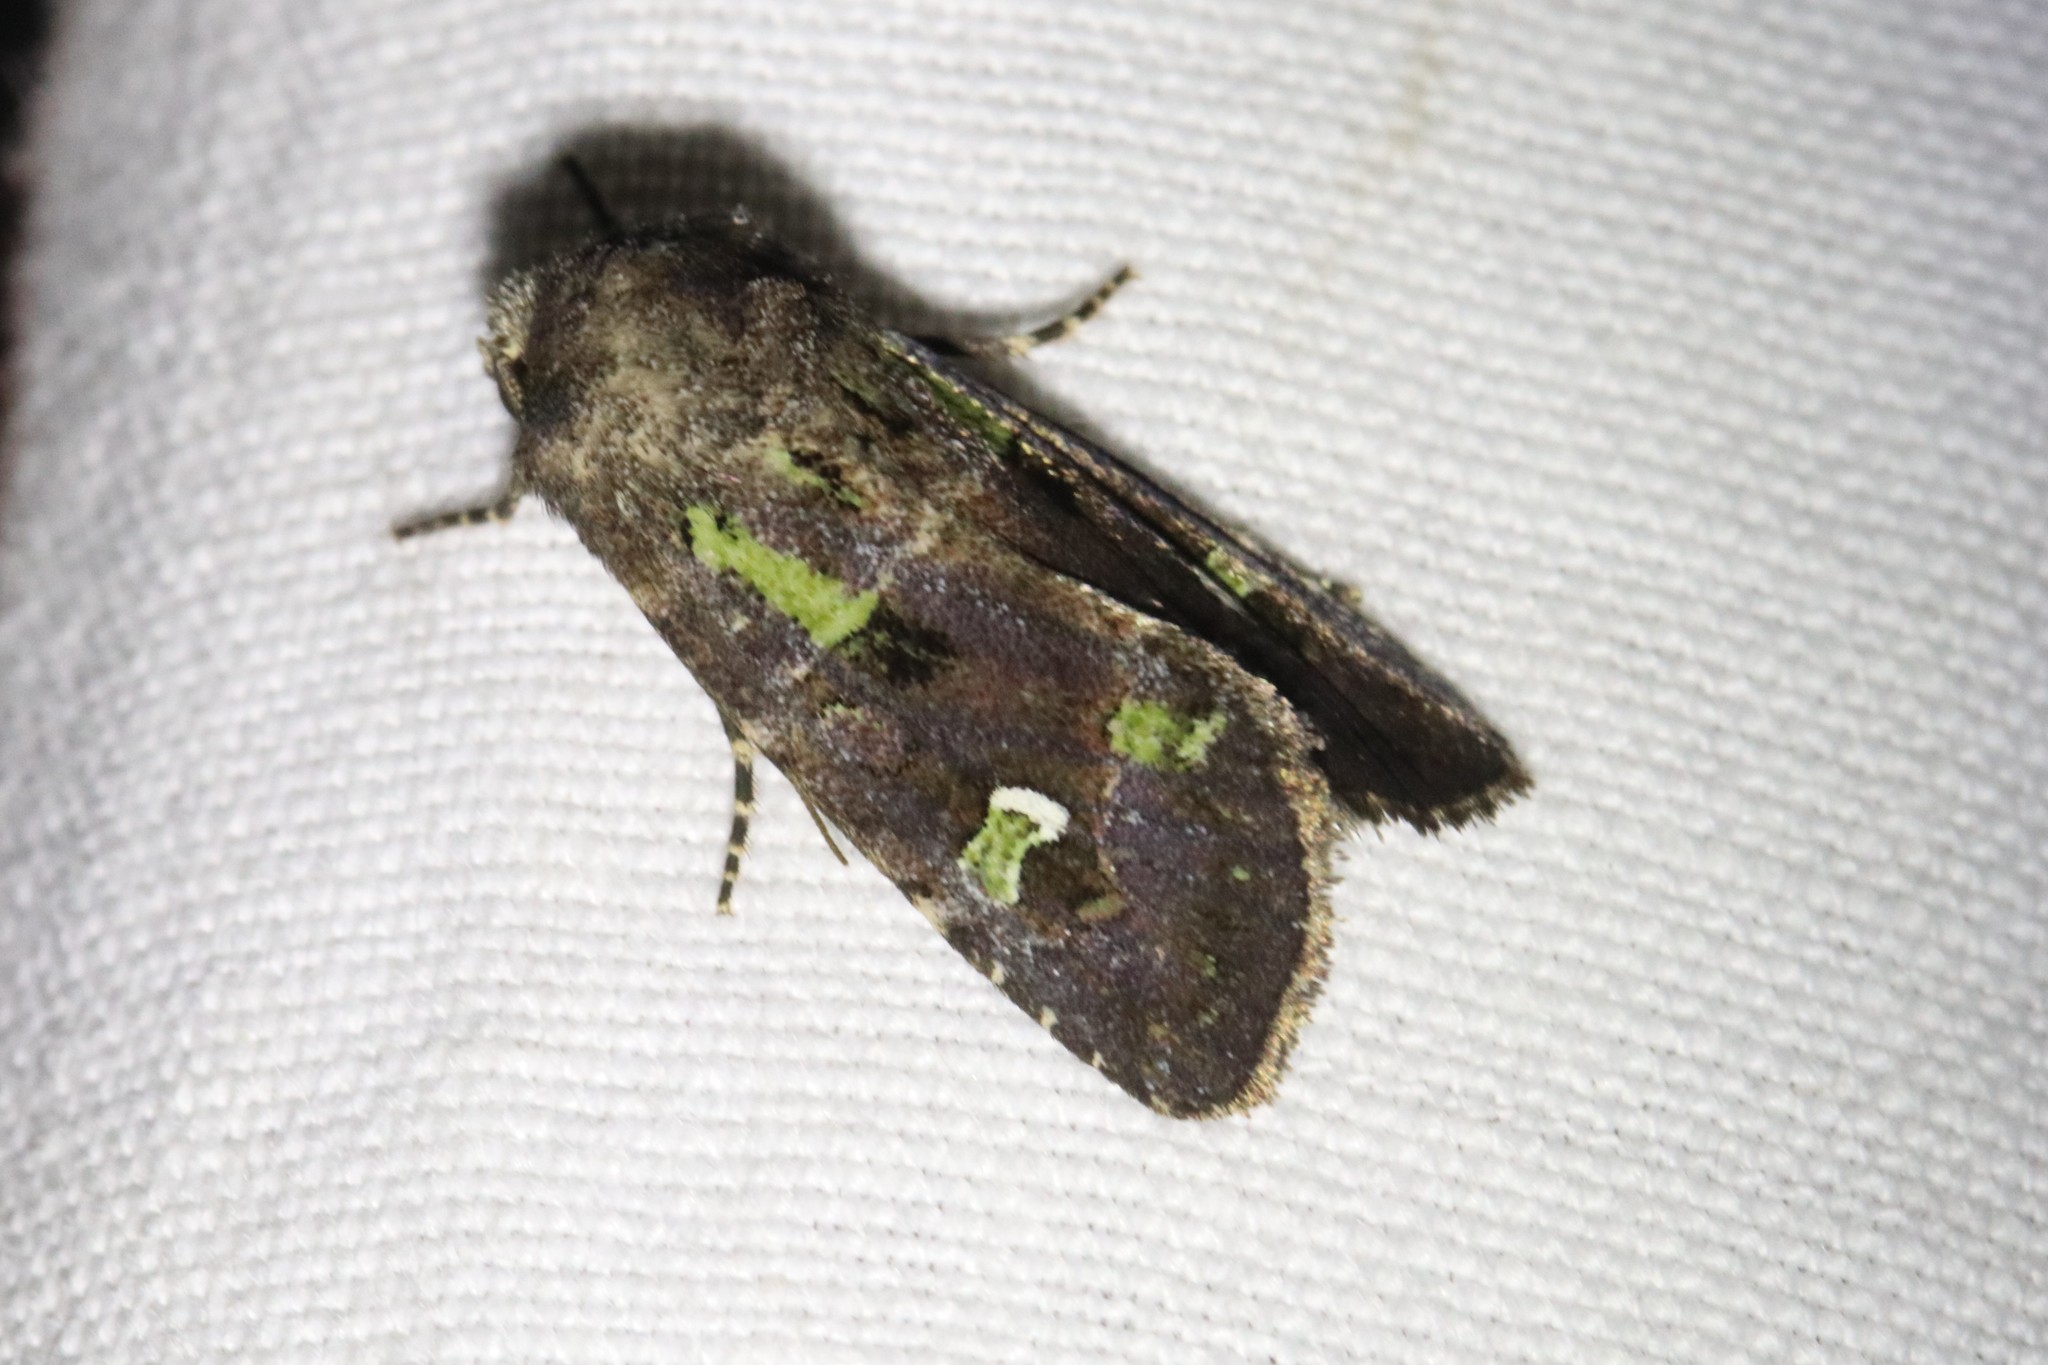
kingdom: Animalia
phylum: Arthropoda
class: Insecta
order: Lepidoptera
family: Noctuidae
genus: Lacinipolia
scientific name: Lacinipolia renigera
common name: Kidney-spotted minor
